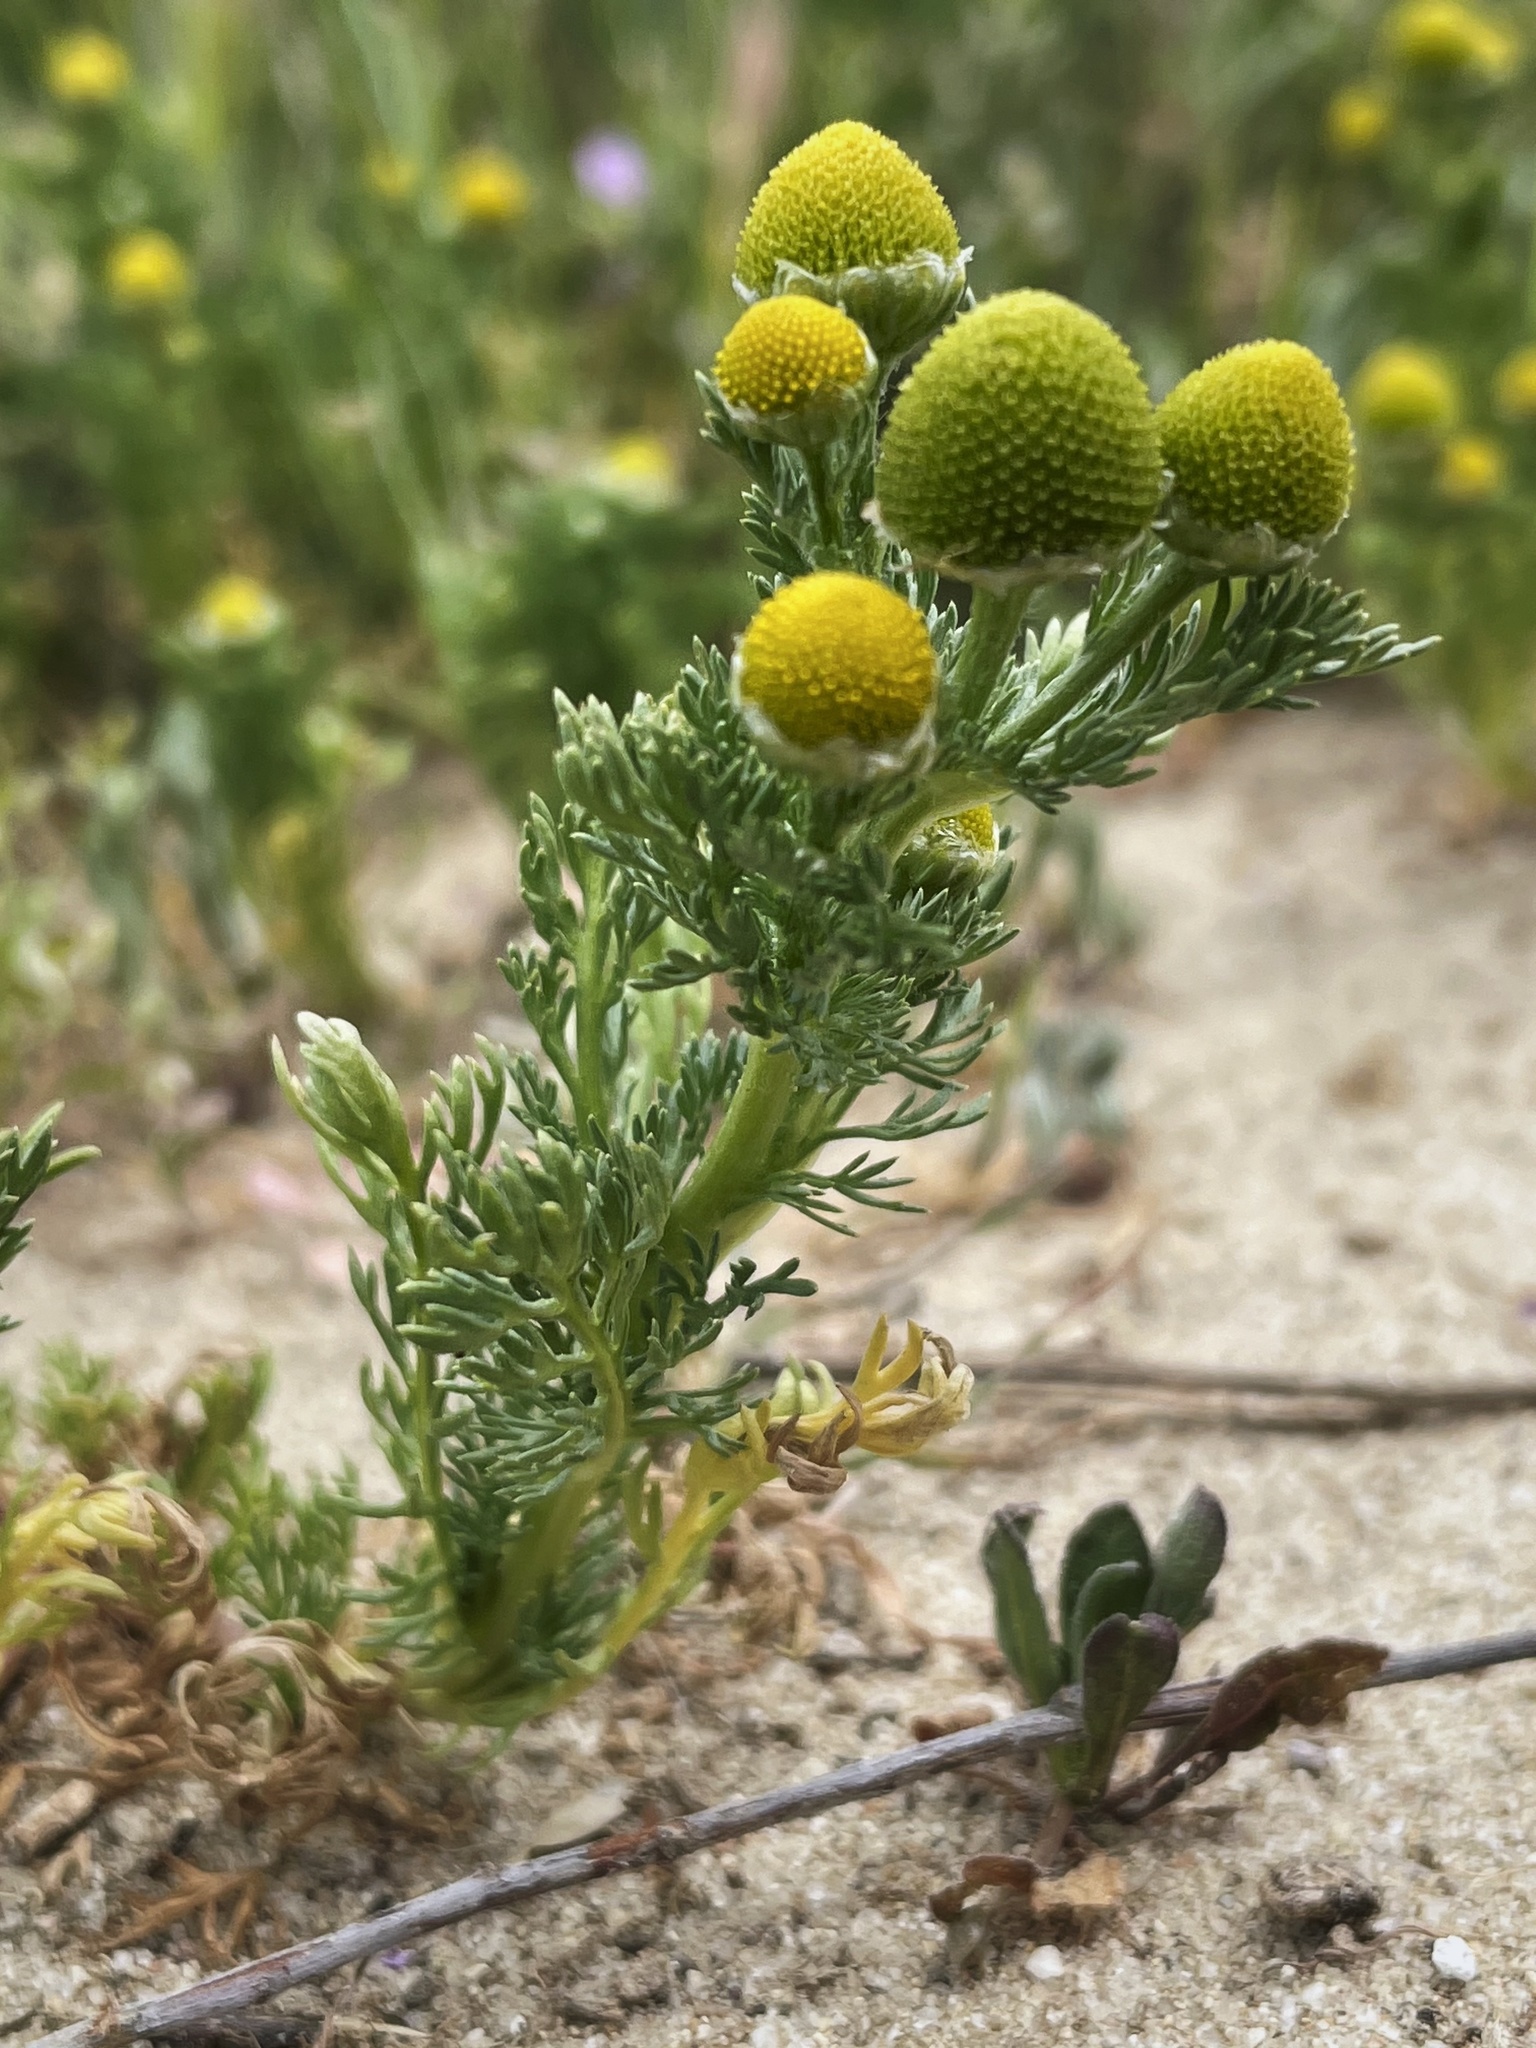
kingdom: Plantae
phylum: Tracheophyta
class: Magnoliopsida
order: Asterales
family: Asteraceae
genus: Matricaria
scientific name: Matricaria discoidea
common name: Disc mayweed
